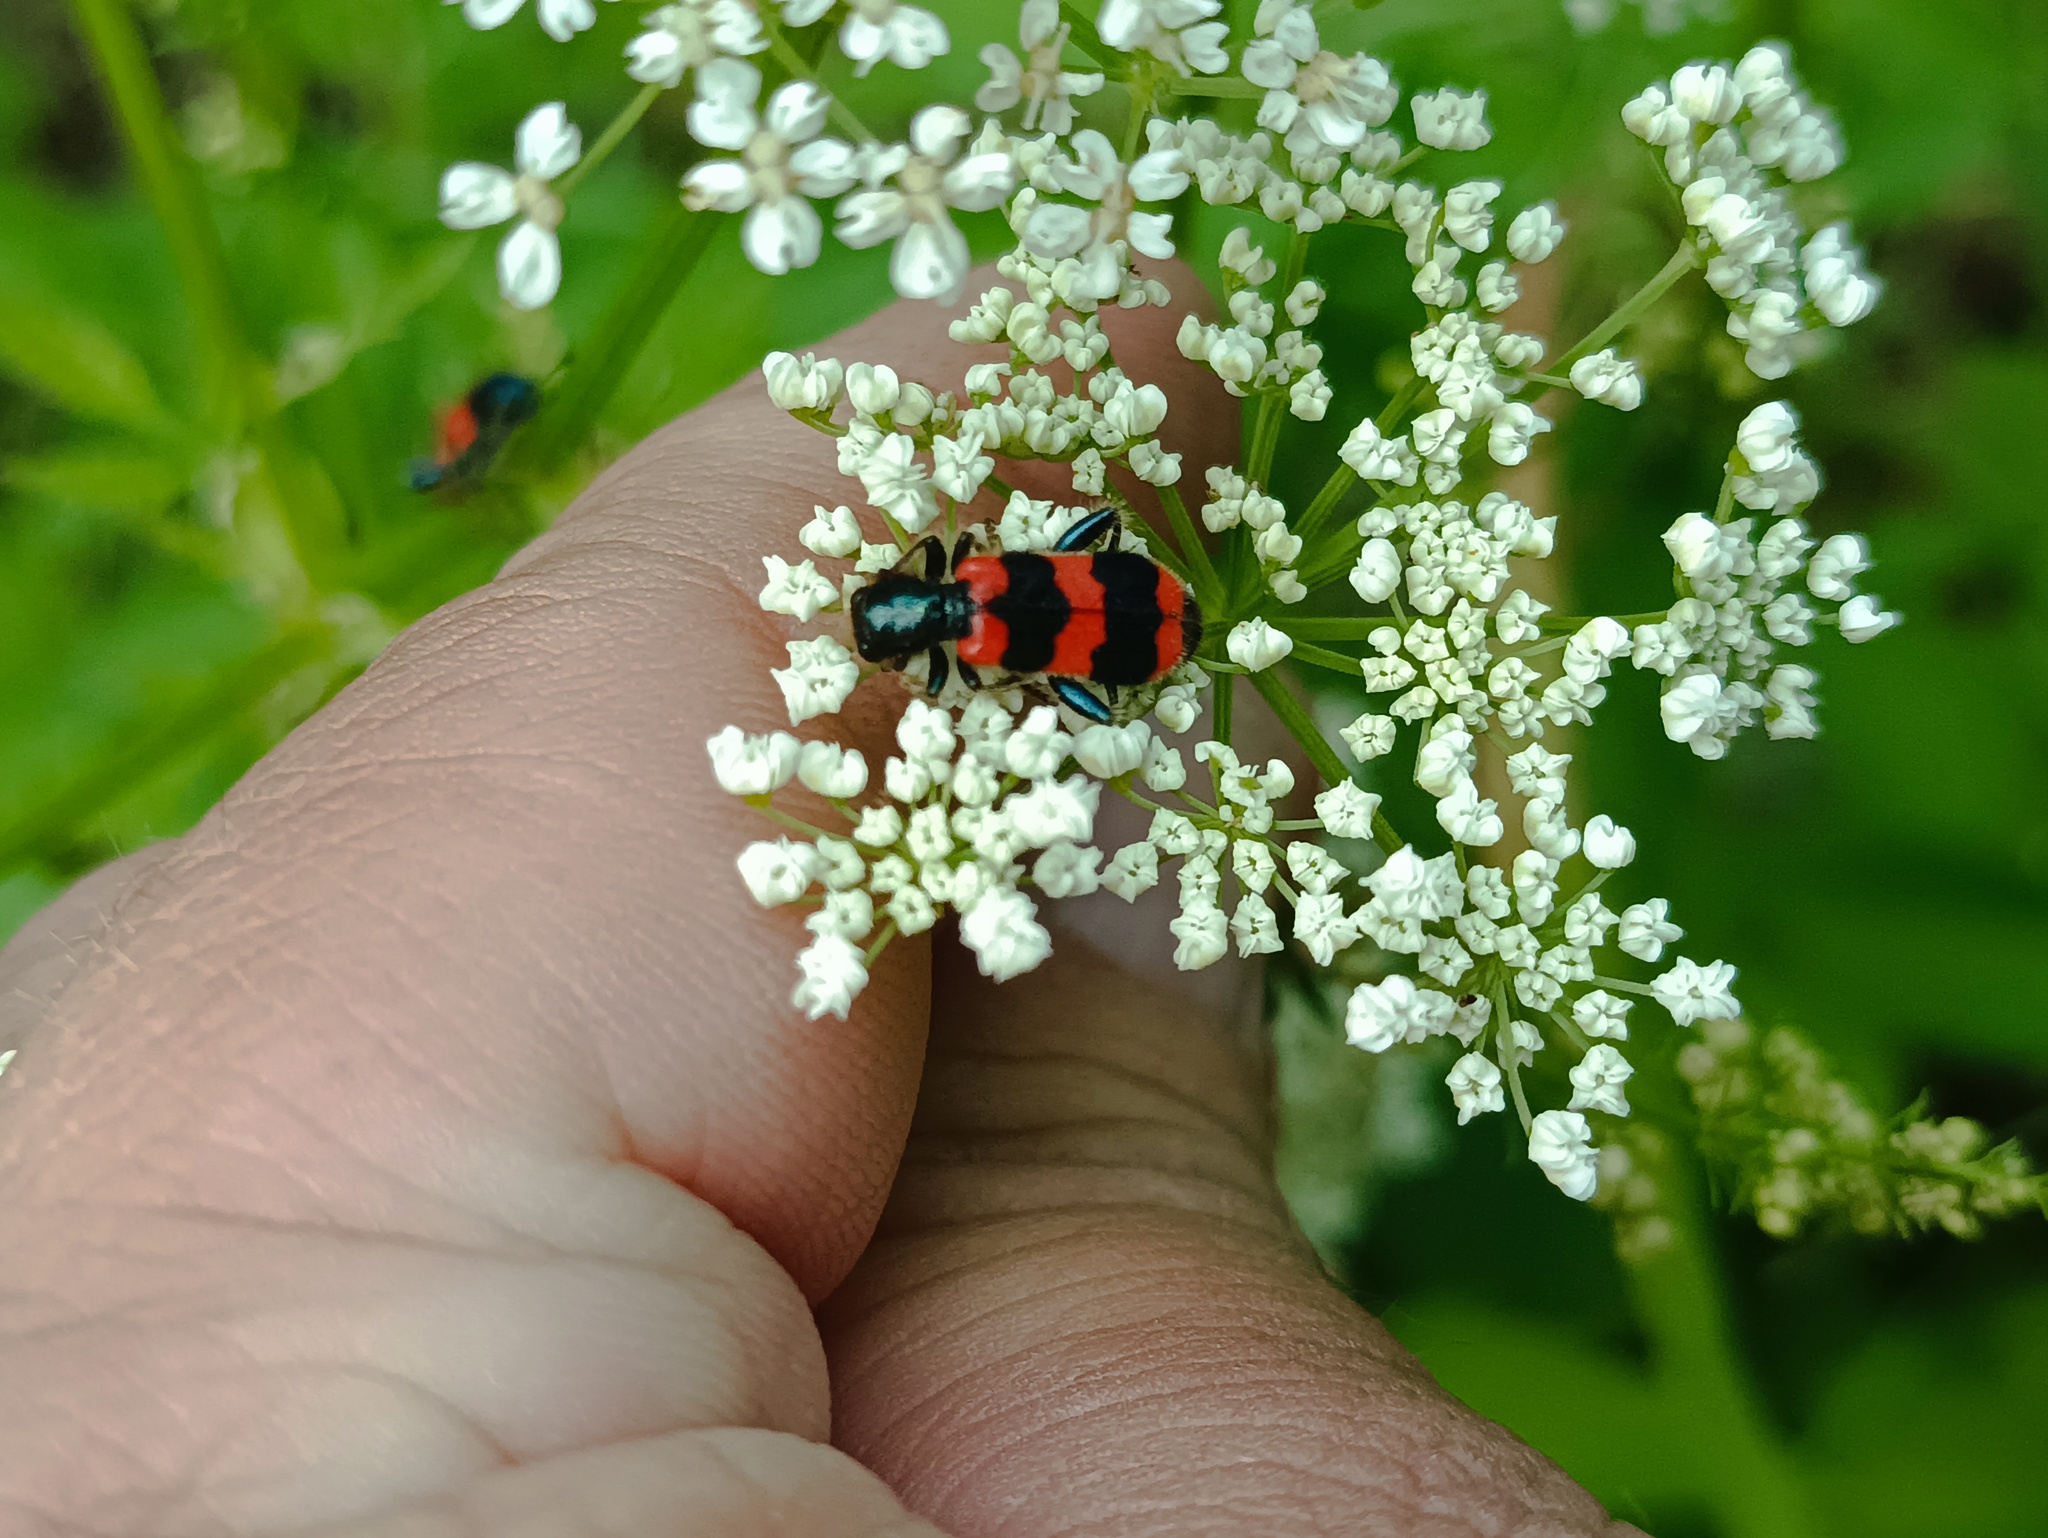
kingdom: Animalia
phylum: Arthropoda
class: Insecta
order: Coleoptera
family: Cleridae
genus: Trichodes
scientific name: Trichodes apiarius
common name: Bee-eating beetle
